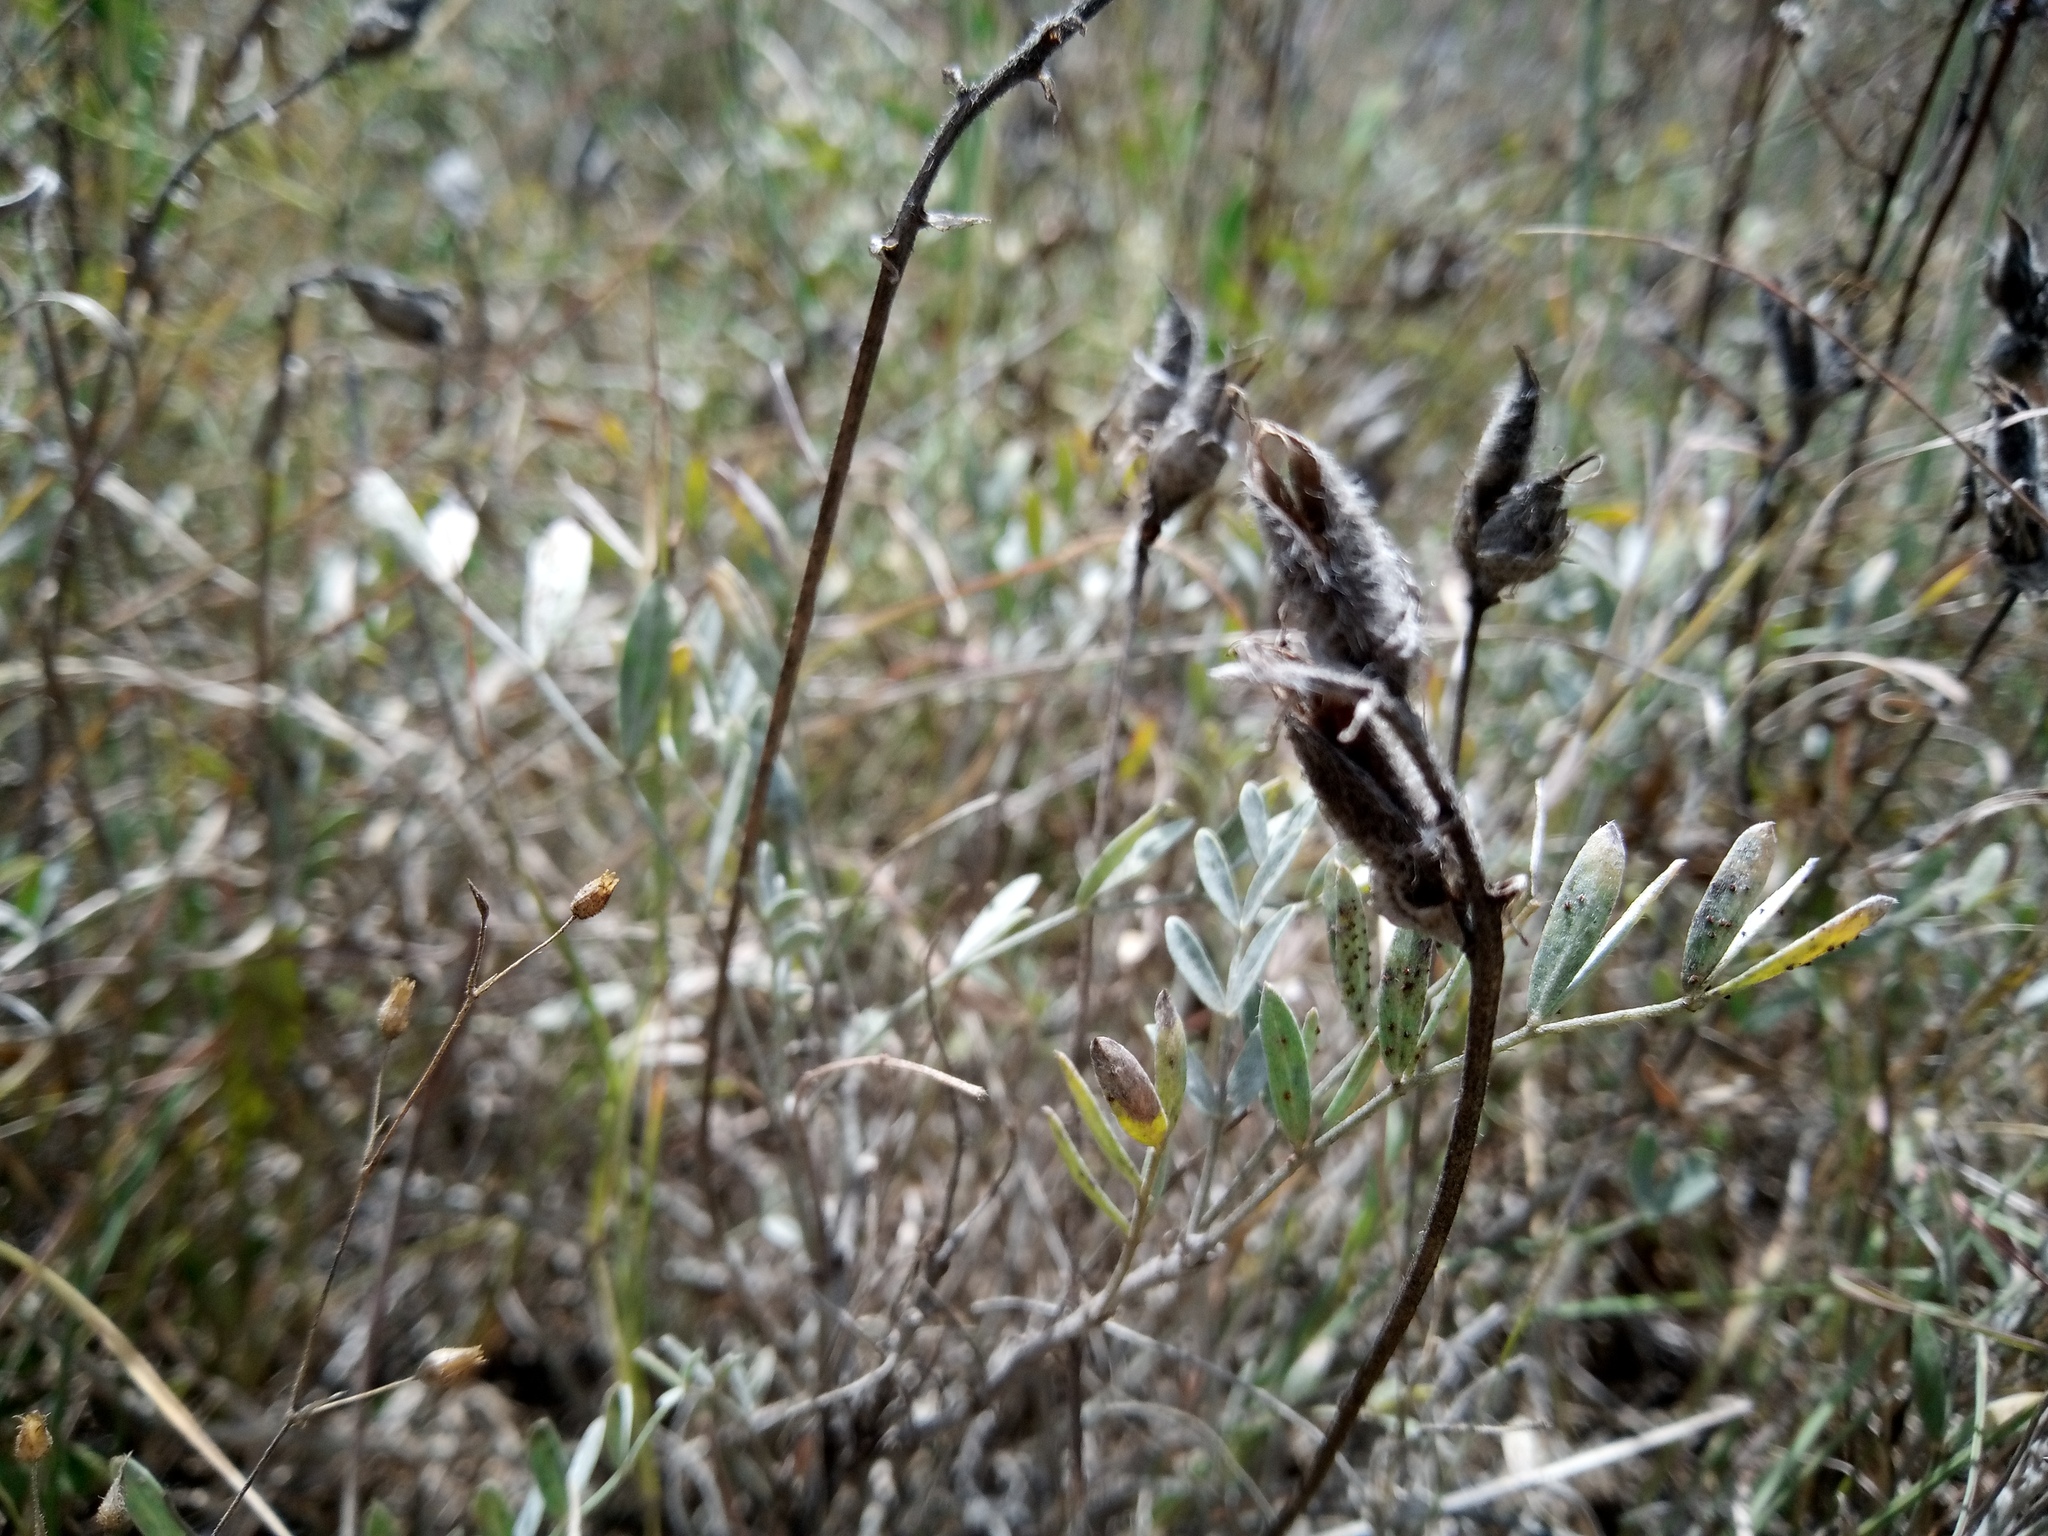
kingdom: Plantae
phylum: Tracheophyta
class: Magnoliopsida
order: Fabales
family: Fabaceae
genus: Astragalus
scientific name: Astragalus vesicarius
